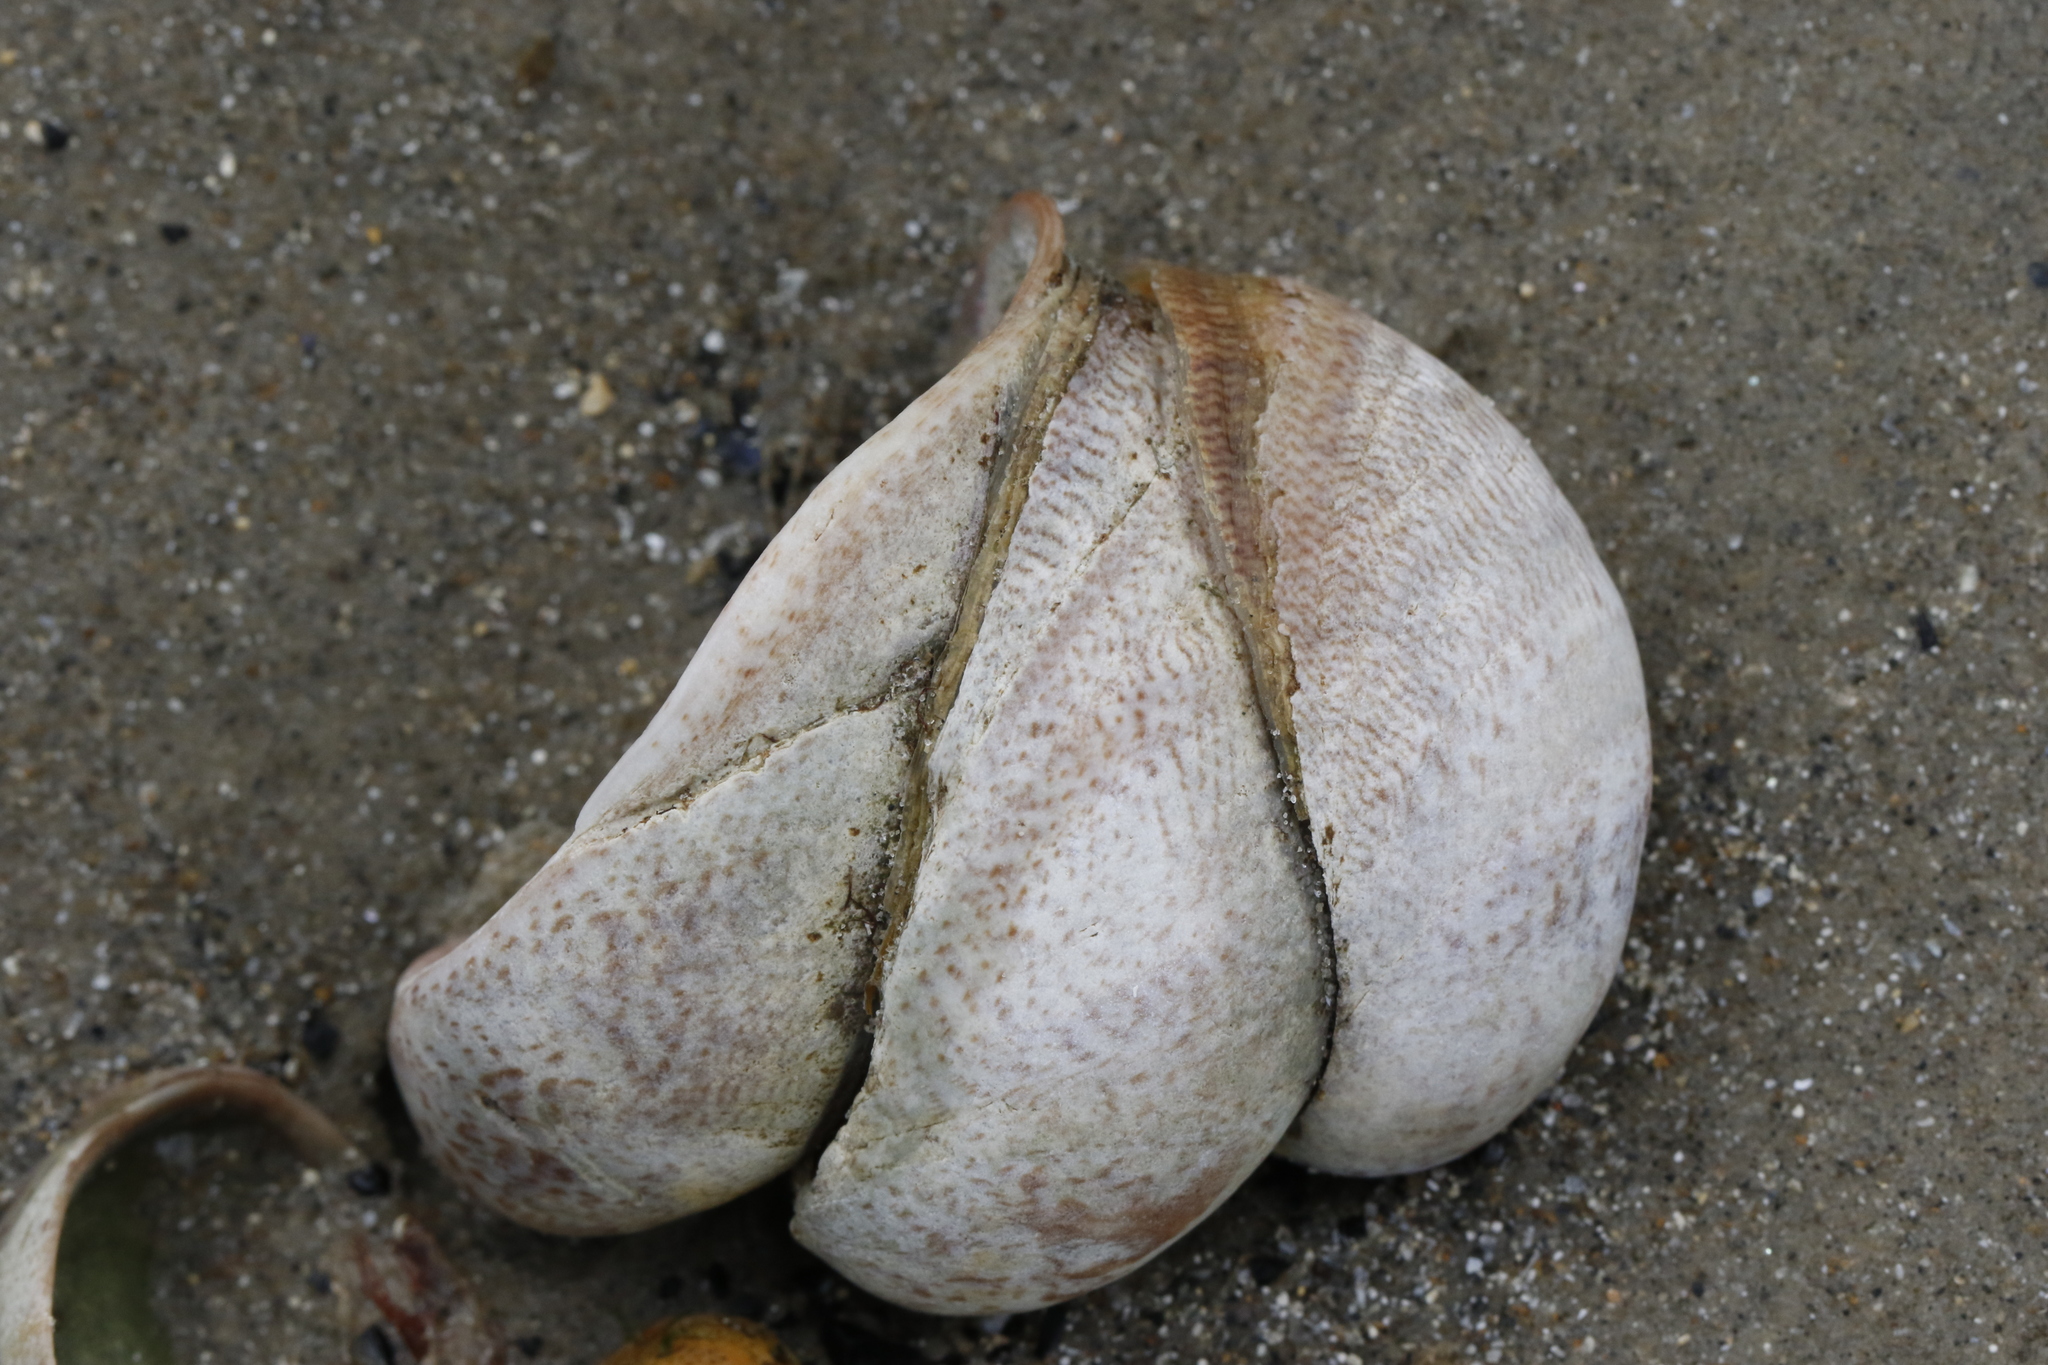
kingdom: Animalia
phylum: Mollusca
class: Gastropoda
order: Littorinimorpha
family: Calyptraeidae
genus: Crepidula
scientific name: Crepidula fornicata
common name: Slipper limpet
